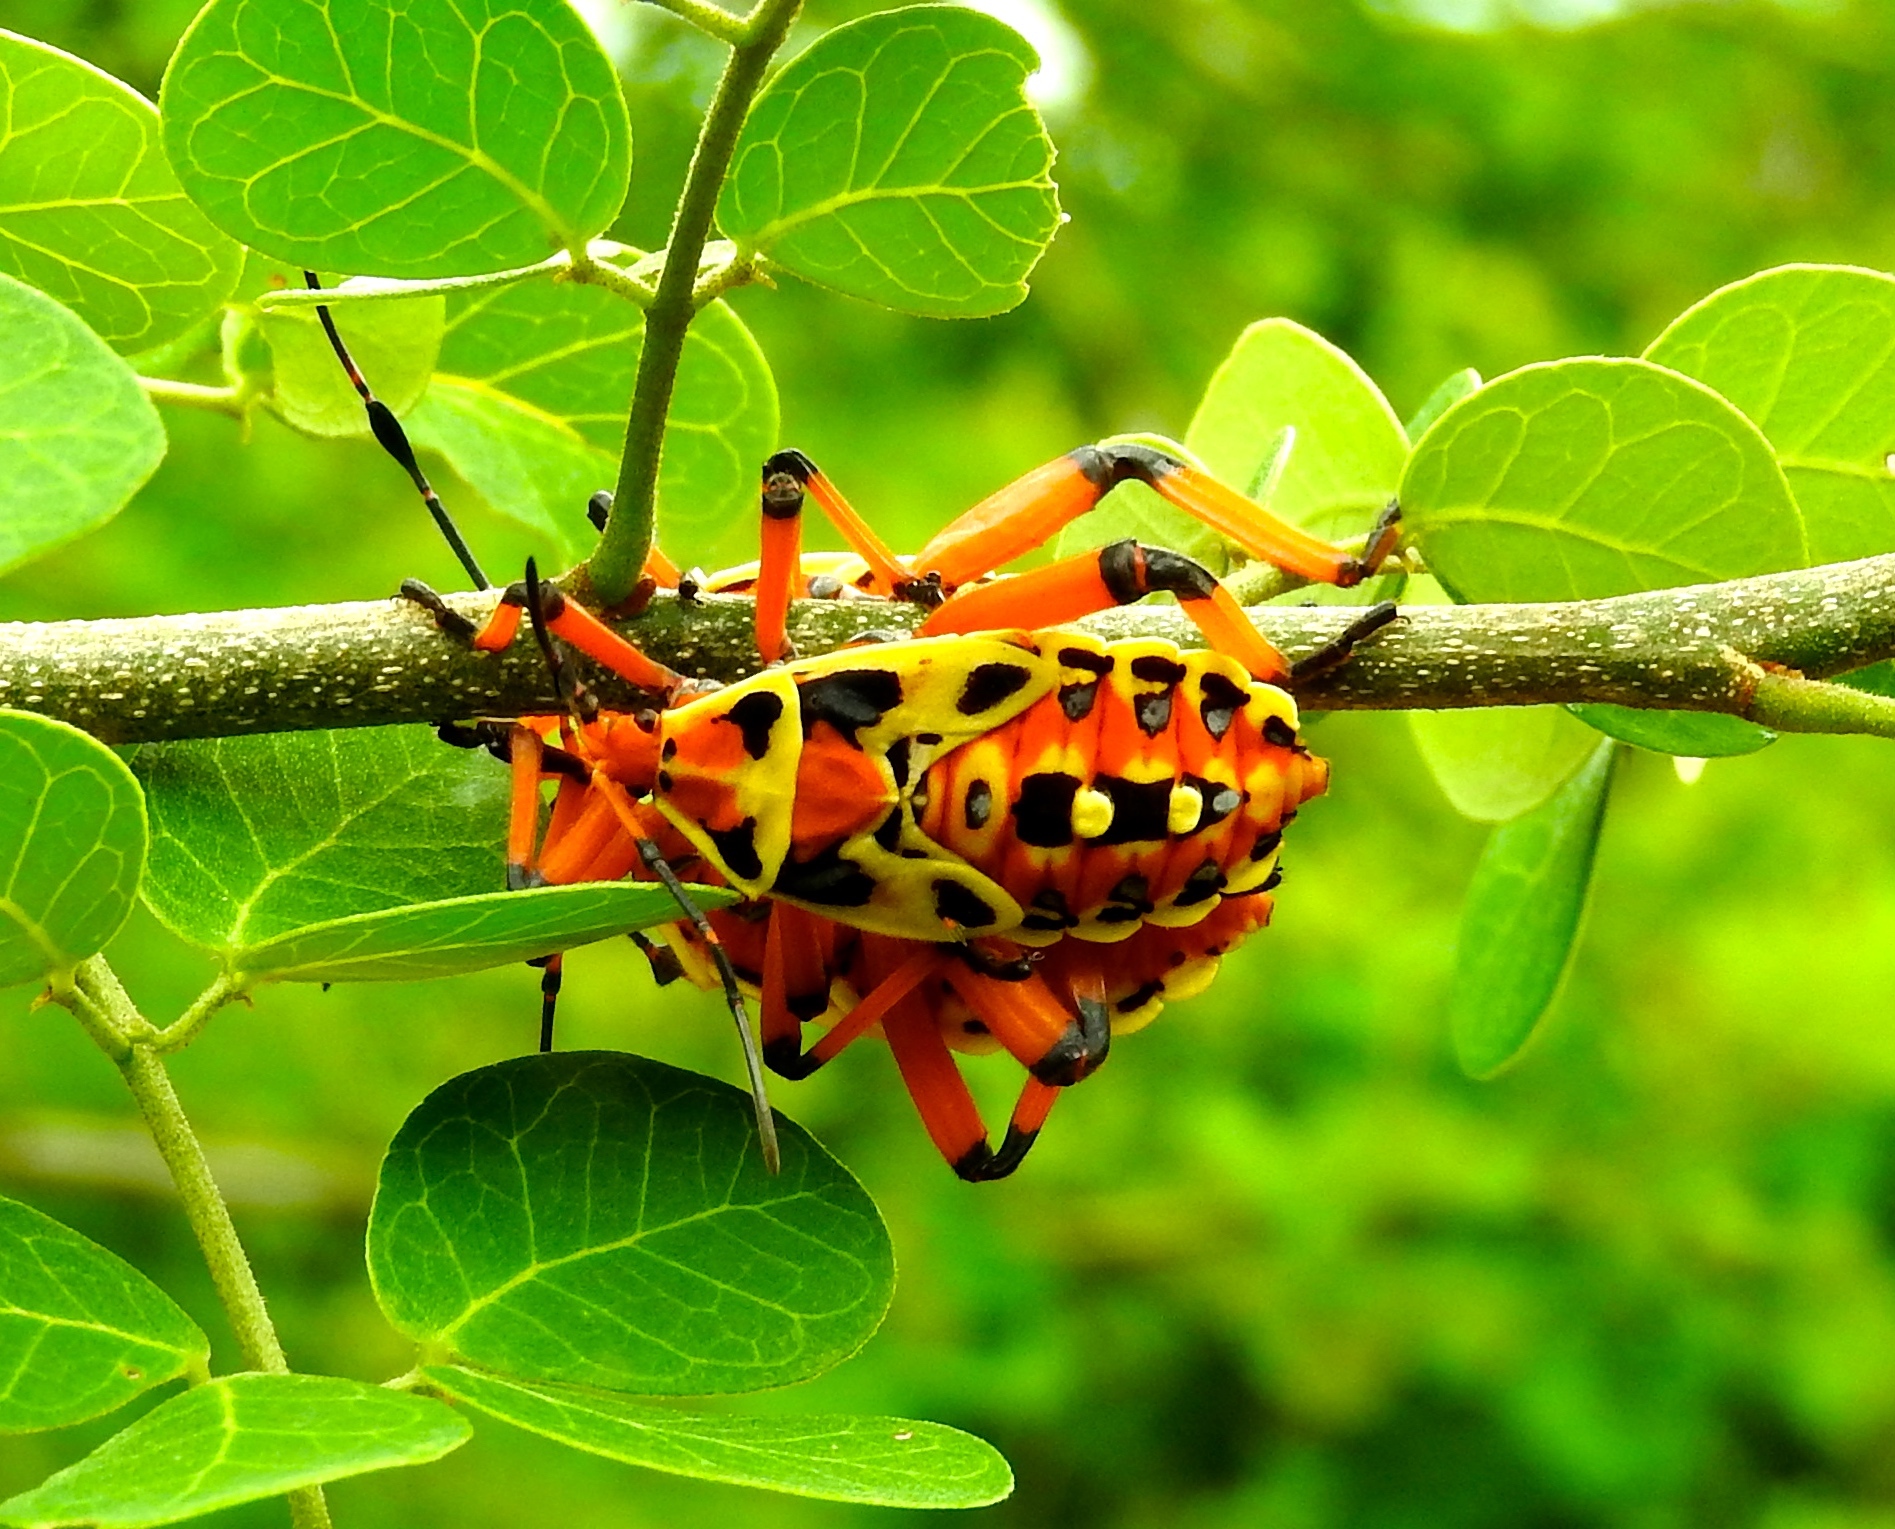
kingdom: Animalia
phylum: Arthropoda
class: Insecta
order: Hemiptera
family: Coreidae
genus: Pachylis
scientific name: Pachylis nervosus
